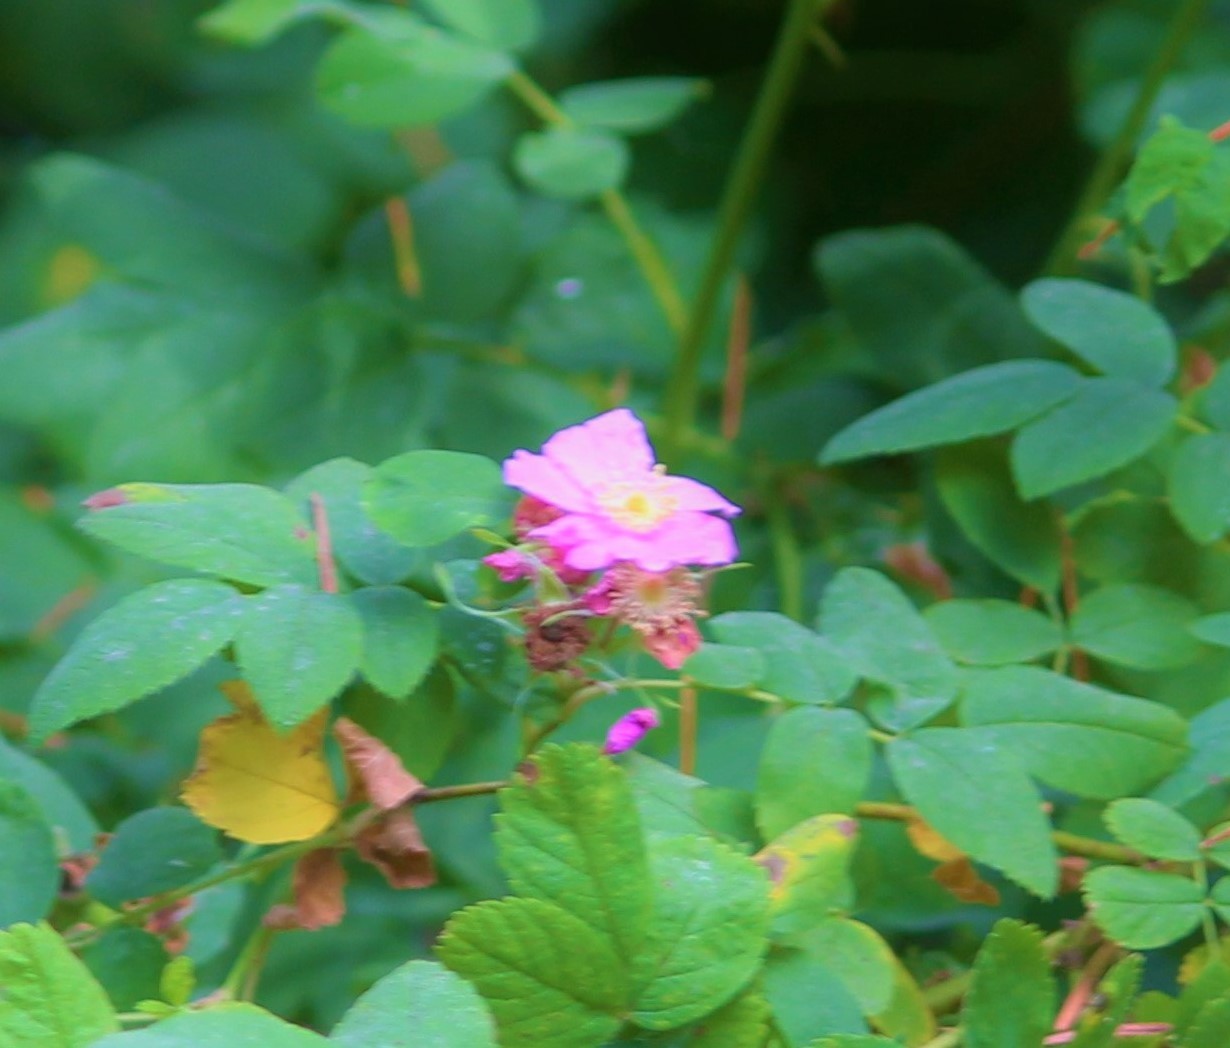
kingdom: Plantae
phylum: Tracheophyta
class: Magnoliopsida
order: Rosales
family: Rosaceae
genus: Rosa
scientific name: Rosa nutkana
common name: Nootka rose
